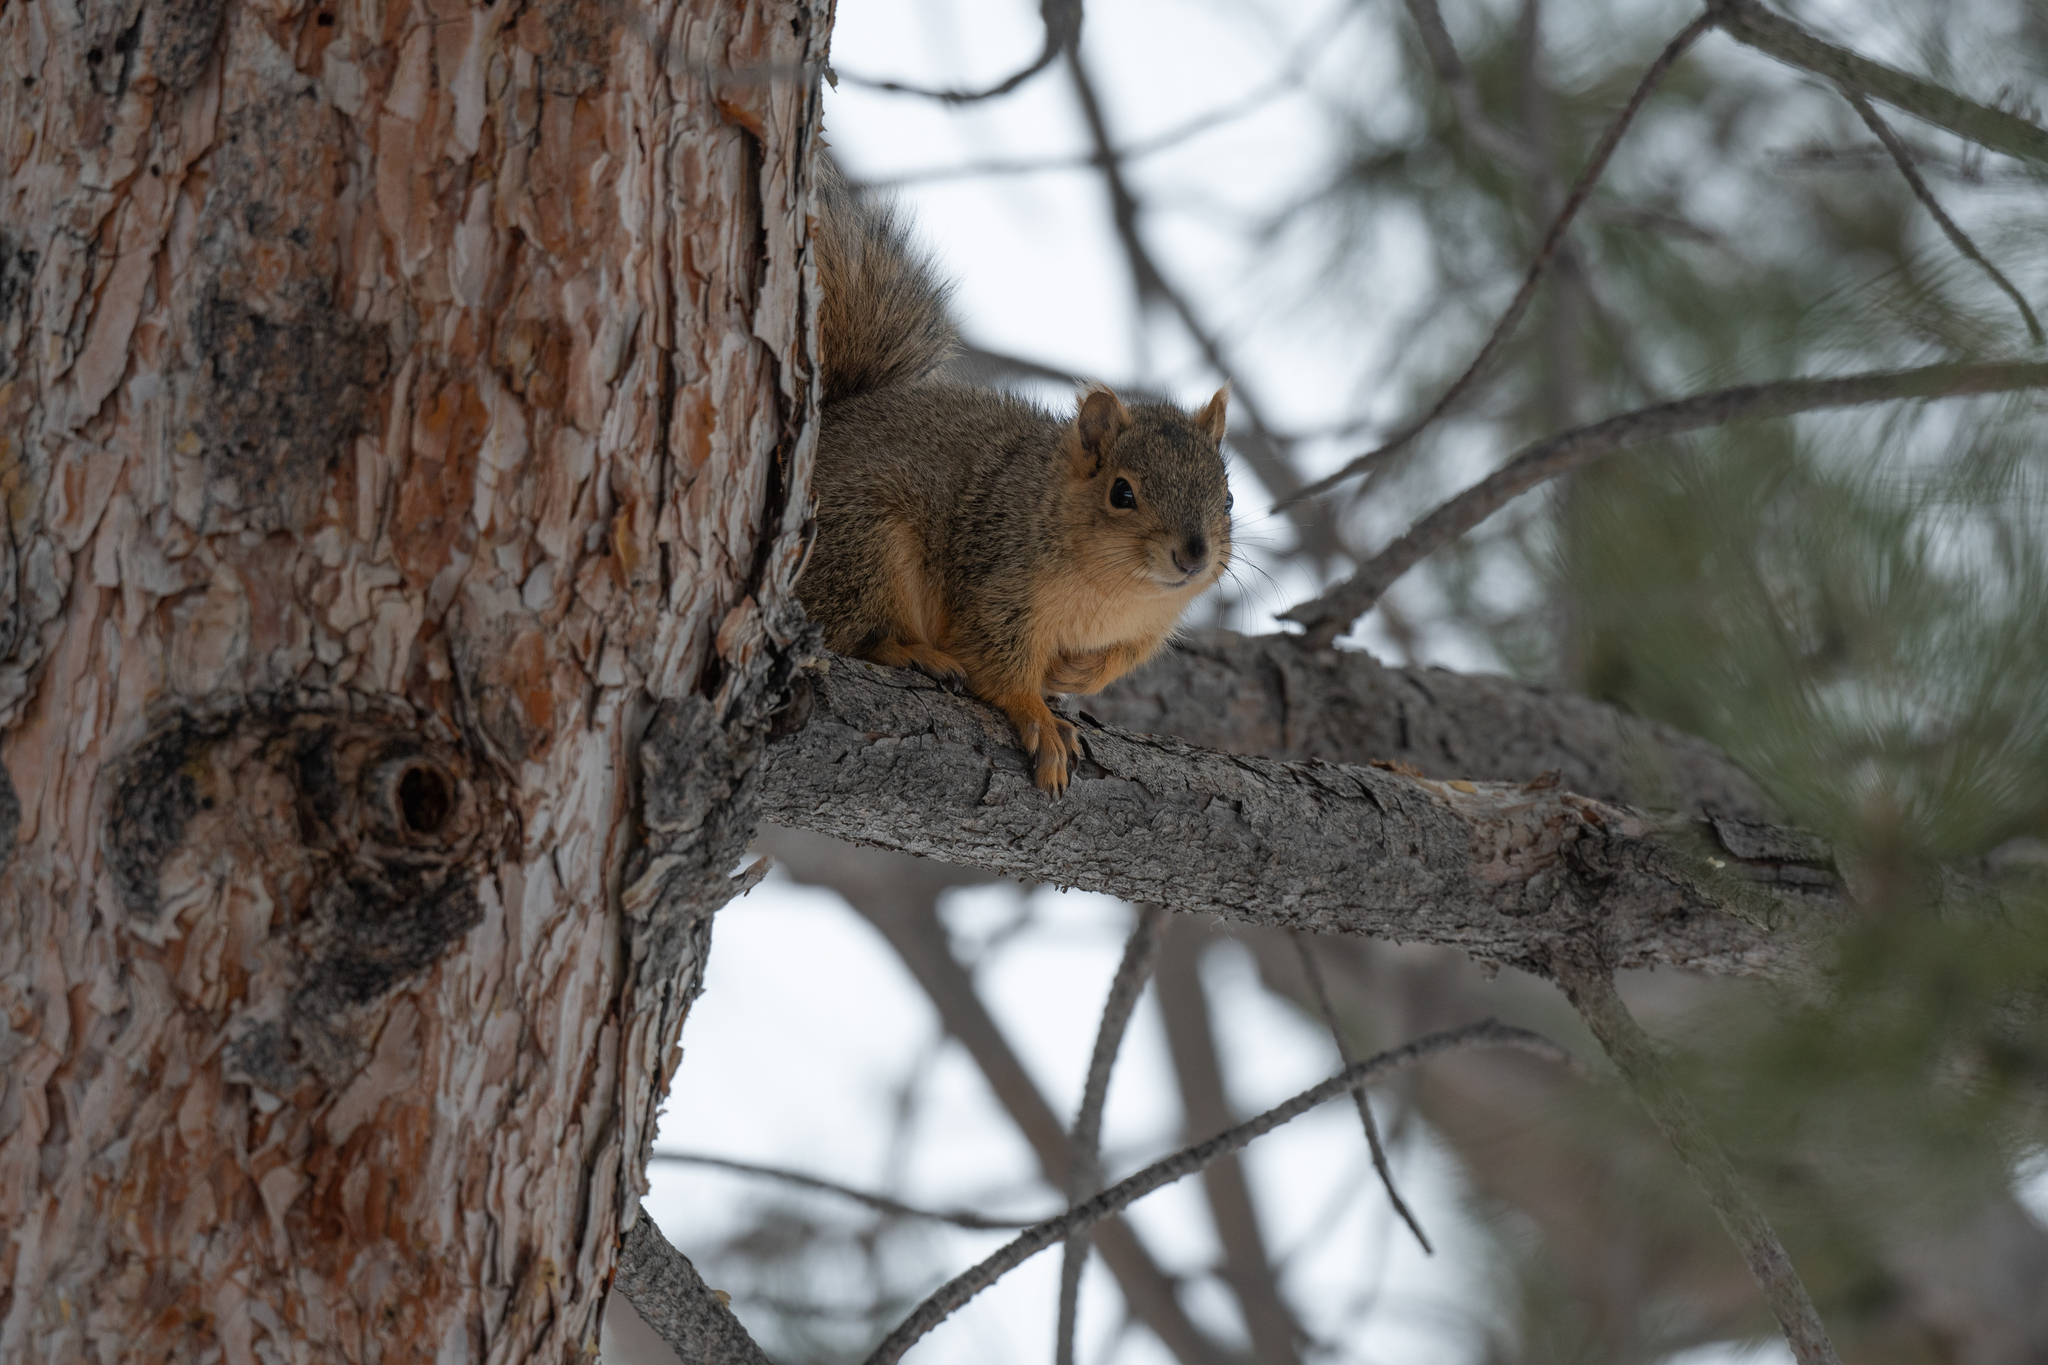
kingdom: Animalia
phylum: Chordata
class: Mammalia
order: Rodentia
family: Sciuridae
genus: Sciurus
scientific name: Sciurus niger
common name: Fox squirrel
